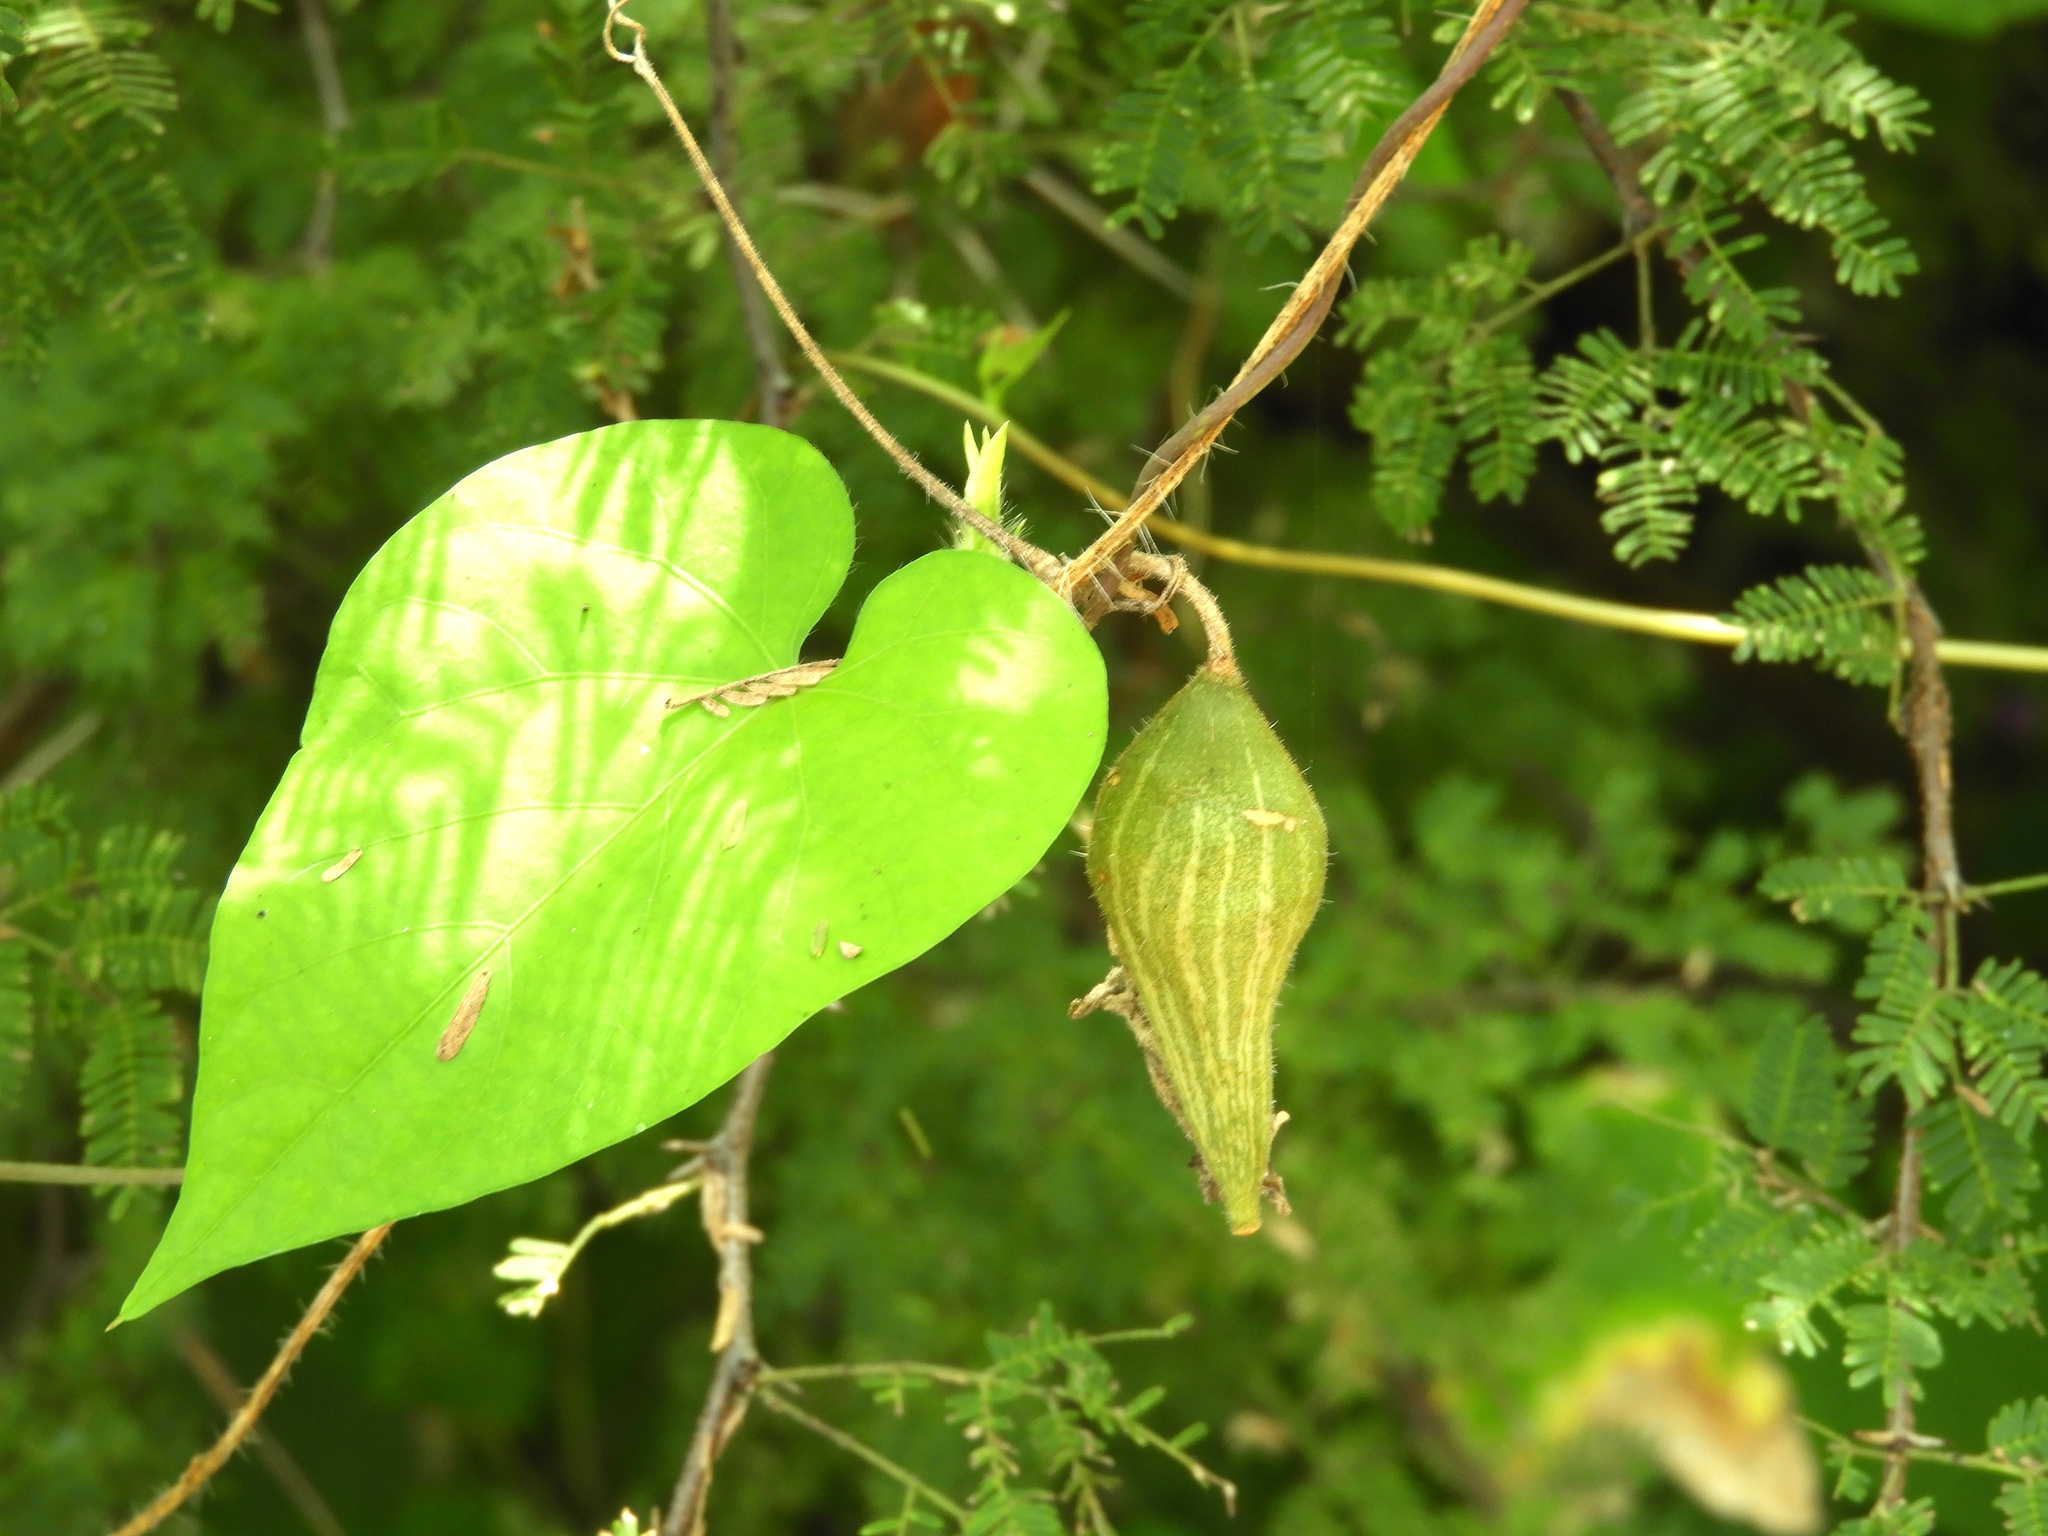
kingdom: Plantae
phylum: Tracheophyta
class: Magnoliopsida
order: Cucurbitales
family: Cucurbitaceae
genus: Schizocarpum
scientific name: Schizocarpum palmeri
